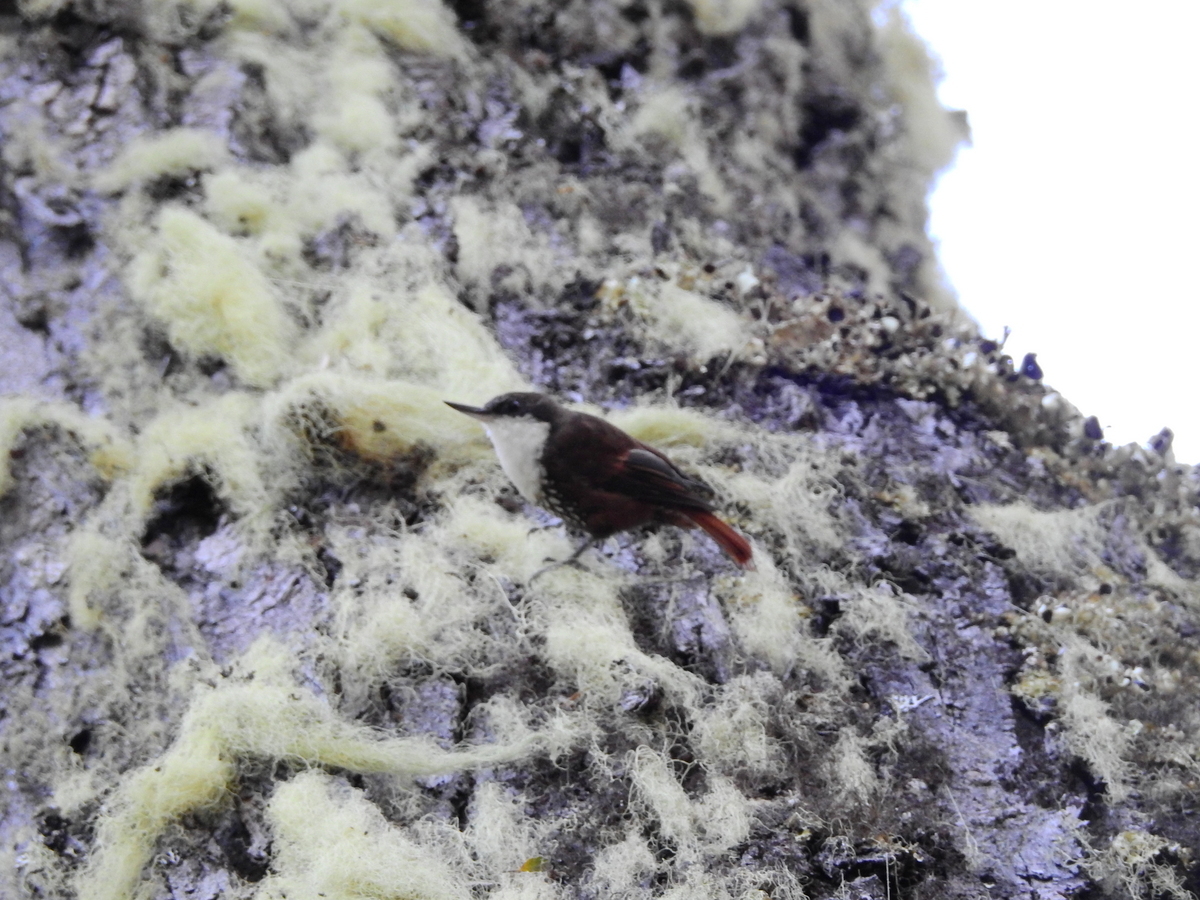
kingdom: Animalia
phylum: Chordata
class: Aves
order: Passeriformes
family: Furnariidae
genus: Pygarrhichas
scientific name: Pygarrhichas albogularis
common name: White-throated treerunner
